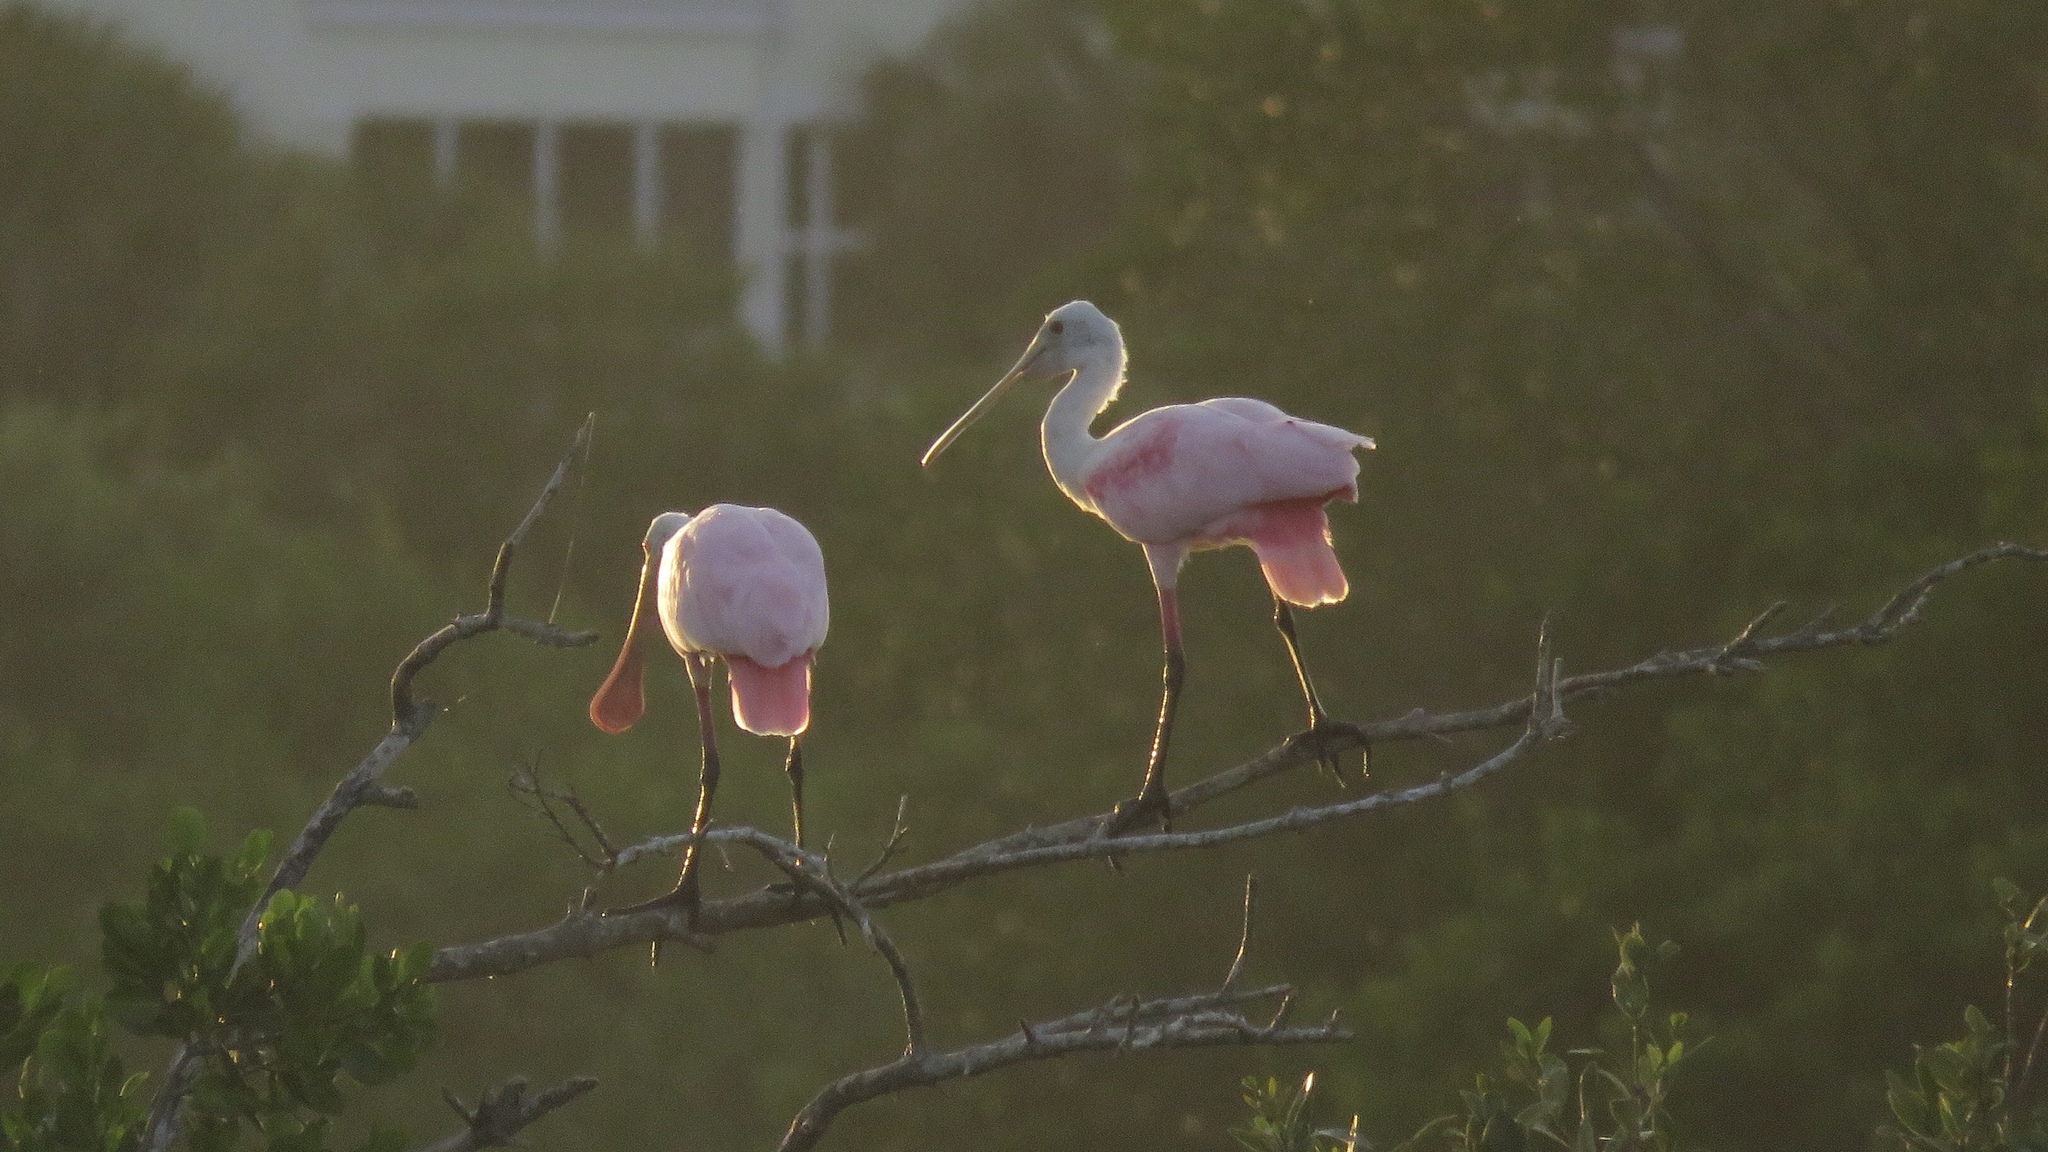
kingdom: Animalia
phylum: Chordata
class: Aves
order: Pelecaniformes
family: Threskiornithidae
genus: Platalea
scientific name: Platalea ajaja
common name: Roseate spoonbill
